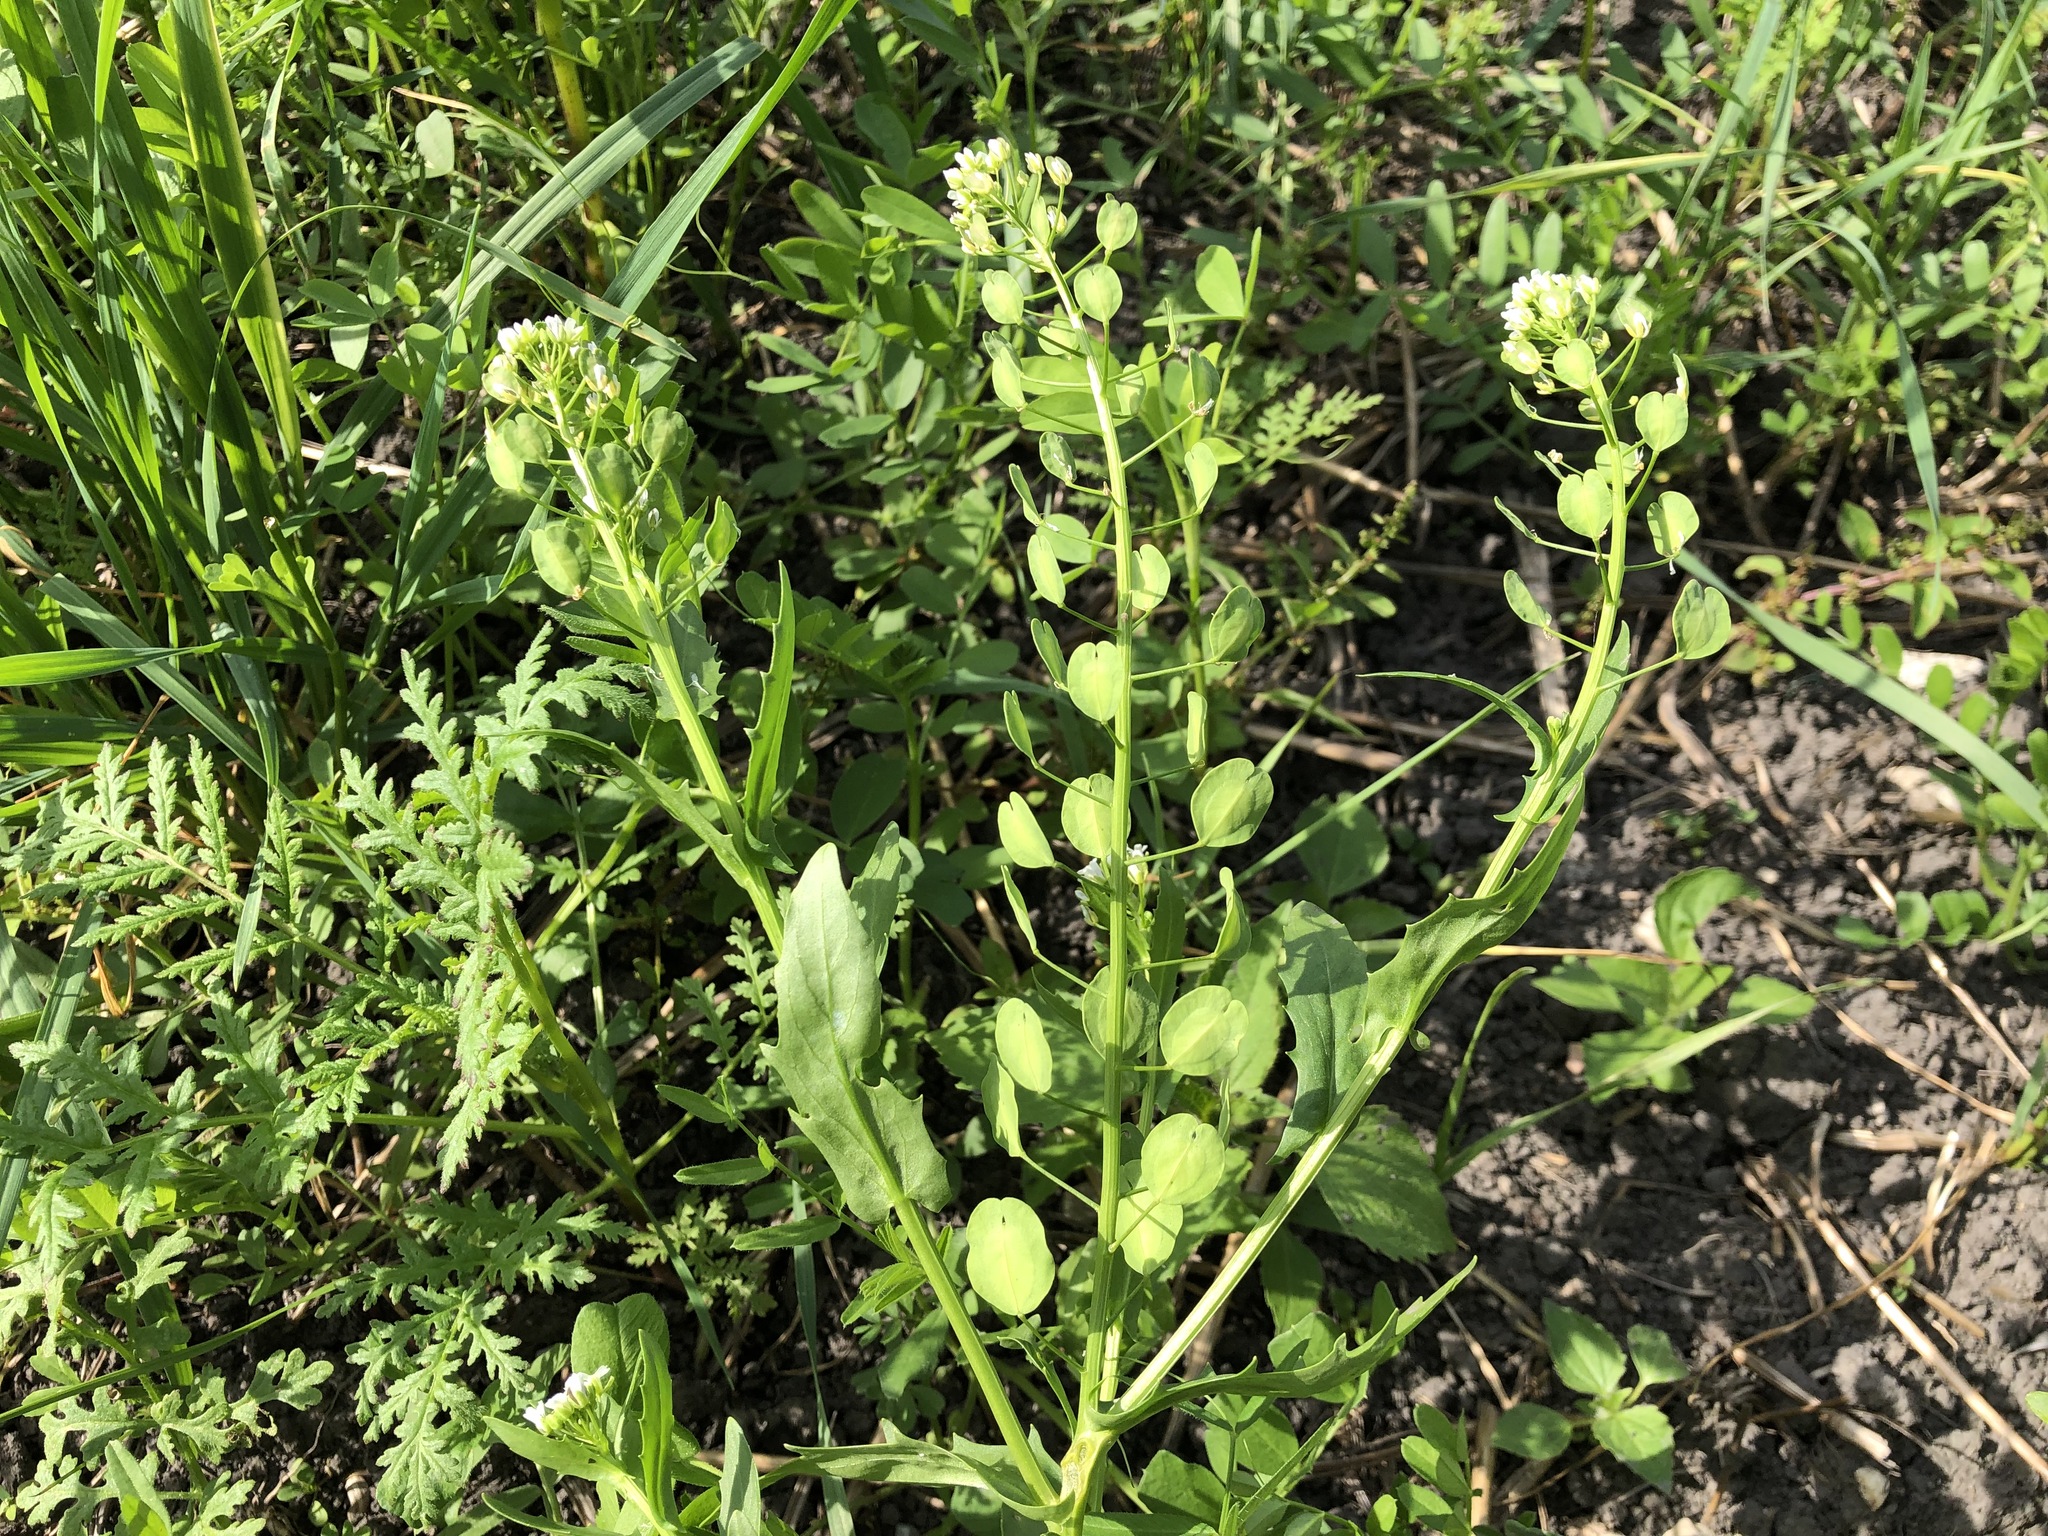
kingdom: Plantae
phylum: Tracheophyta
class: Magnoliopsida
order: Brassicales
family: Brassicaceae
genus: Thlaspi
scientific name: Thlaspi arvense
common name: Field pennycress
